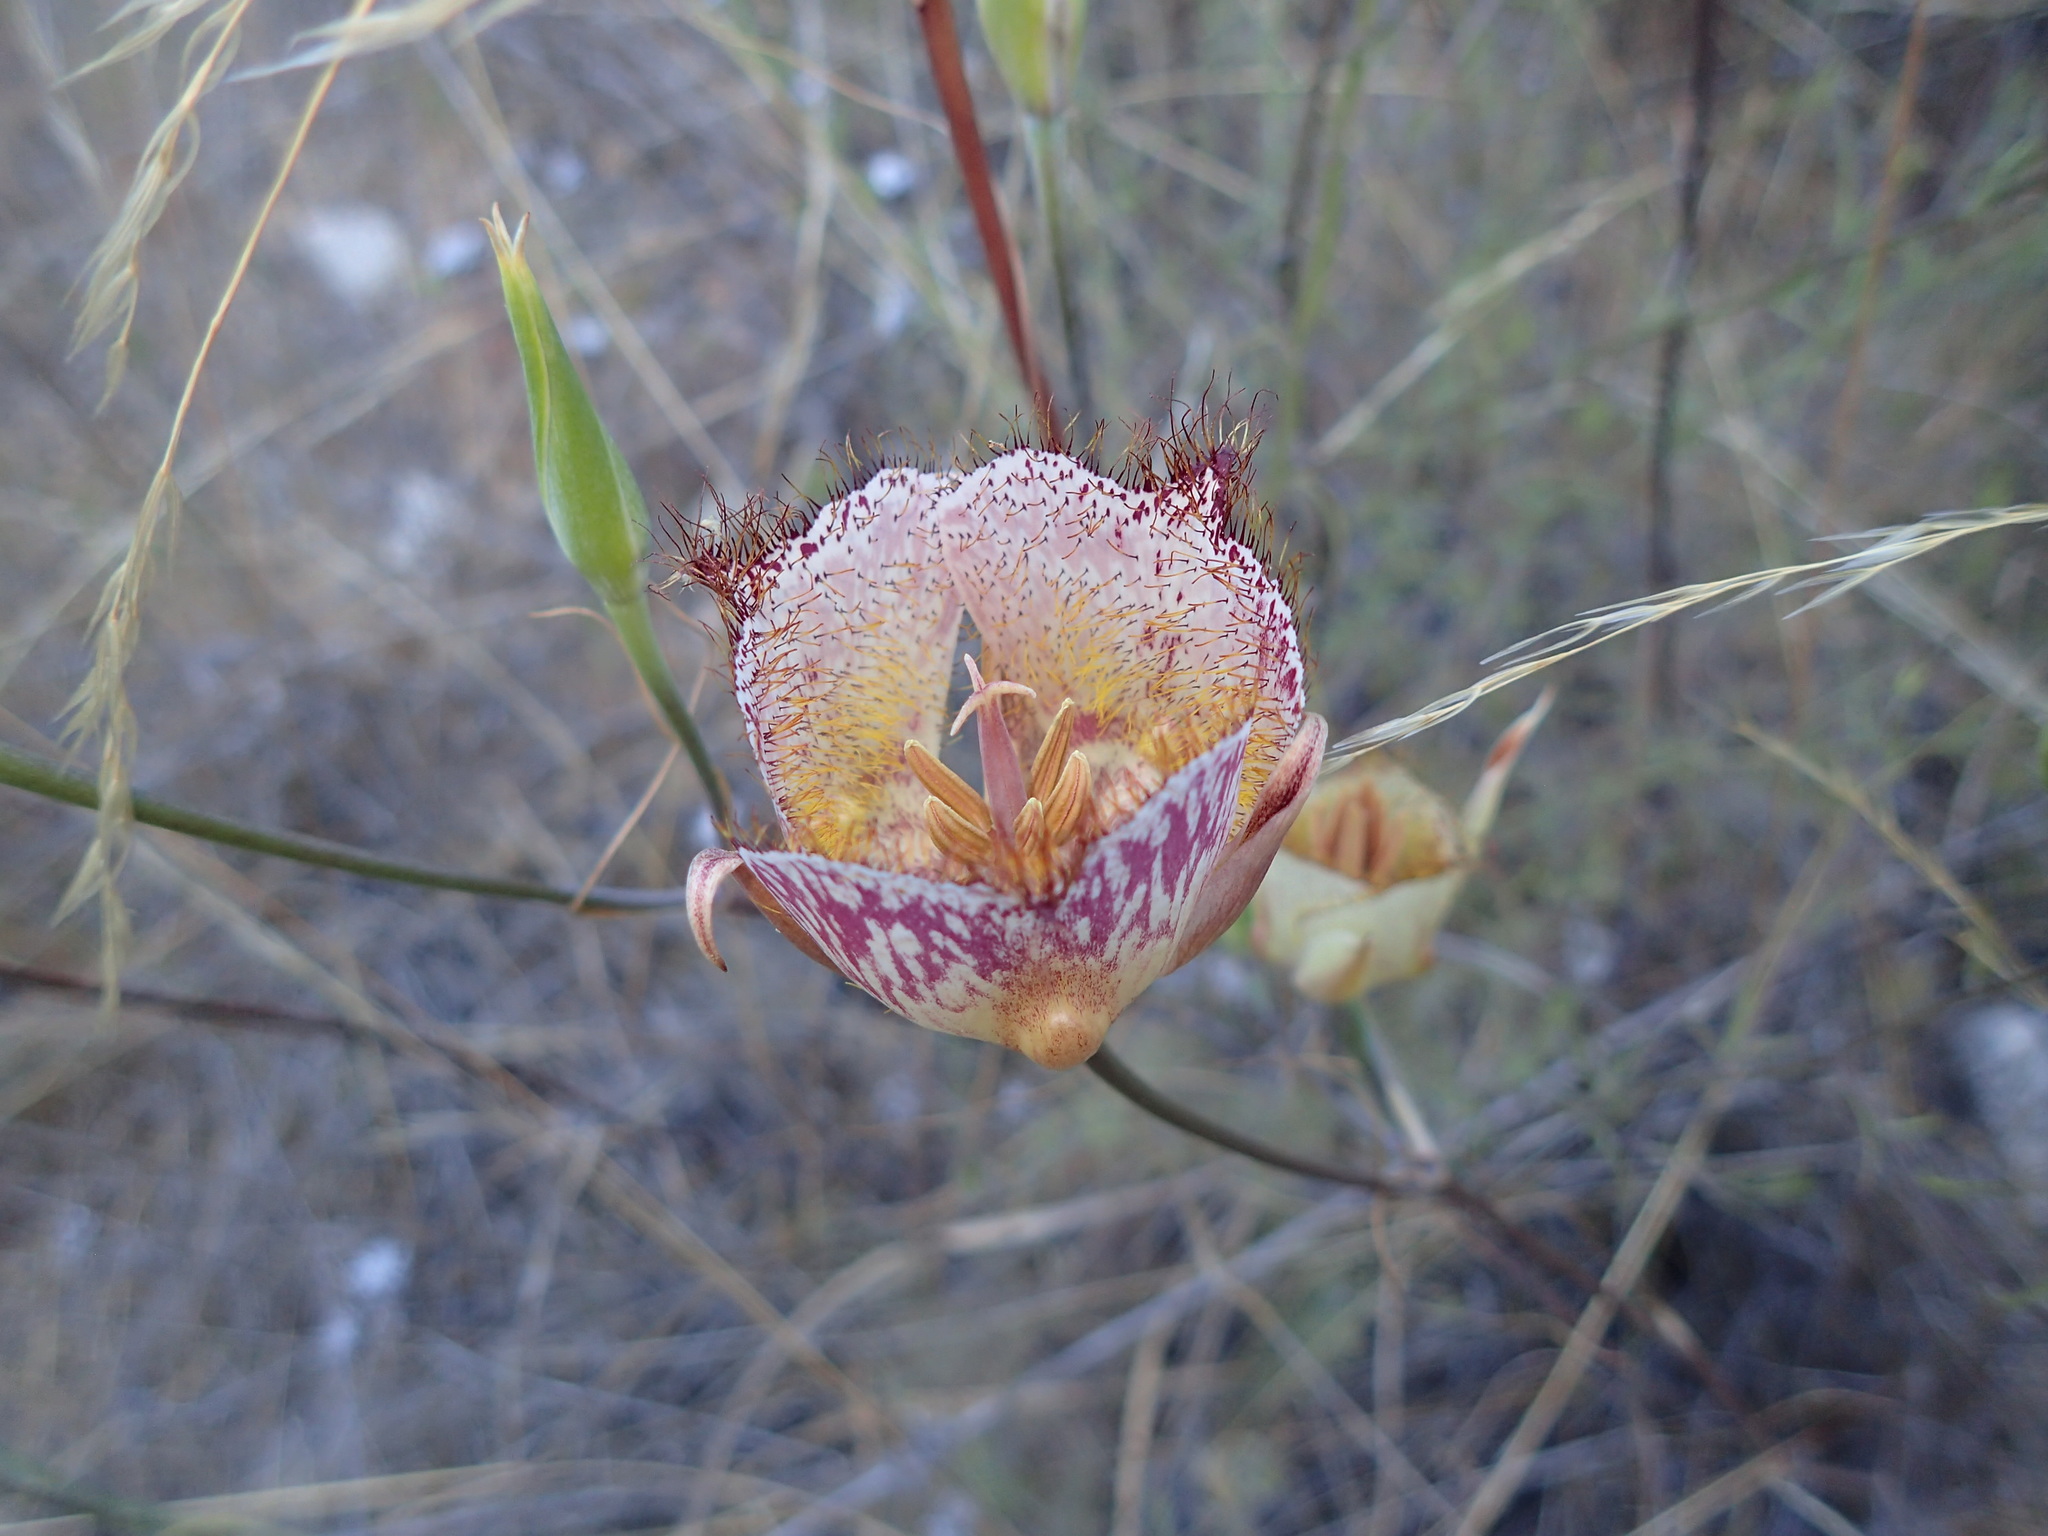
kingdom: Plantae
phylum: Tracheophyta
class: Liliopsida
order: Liliales
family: Liliaceae
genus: Calochortus
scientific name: Calochortus fimbriatus
